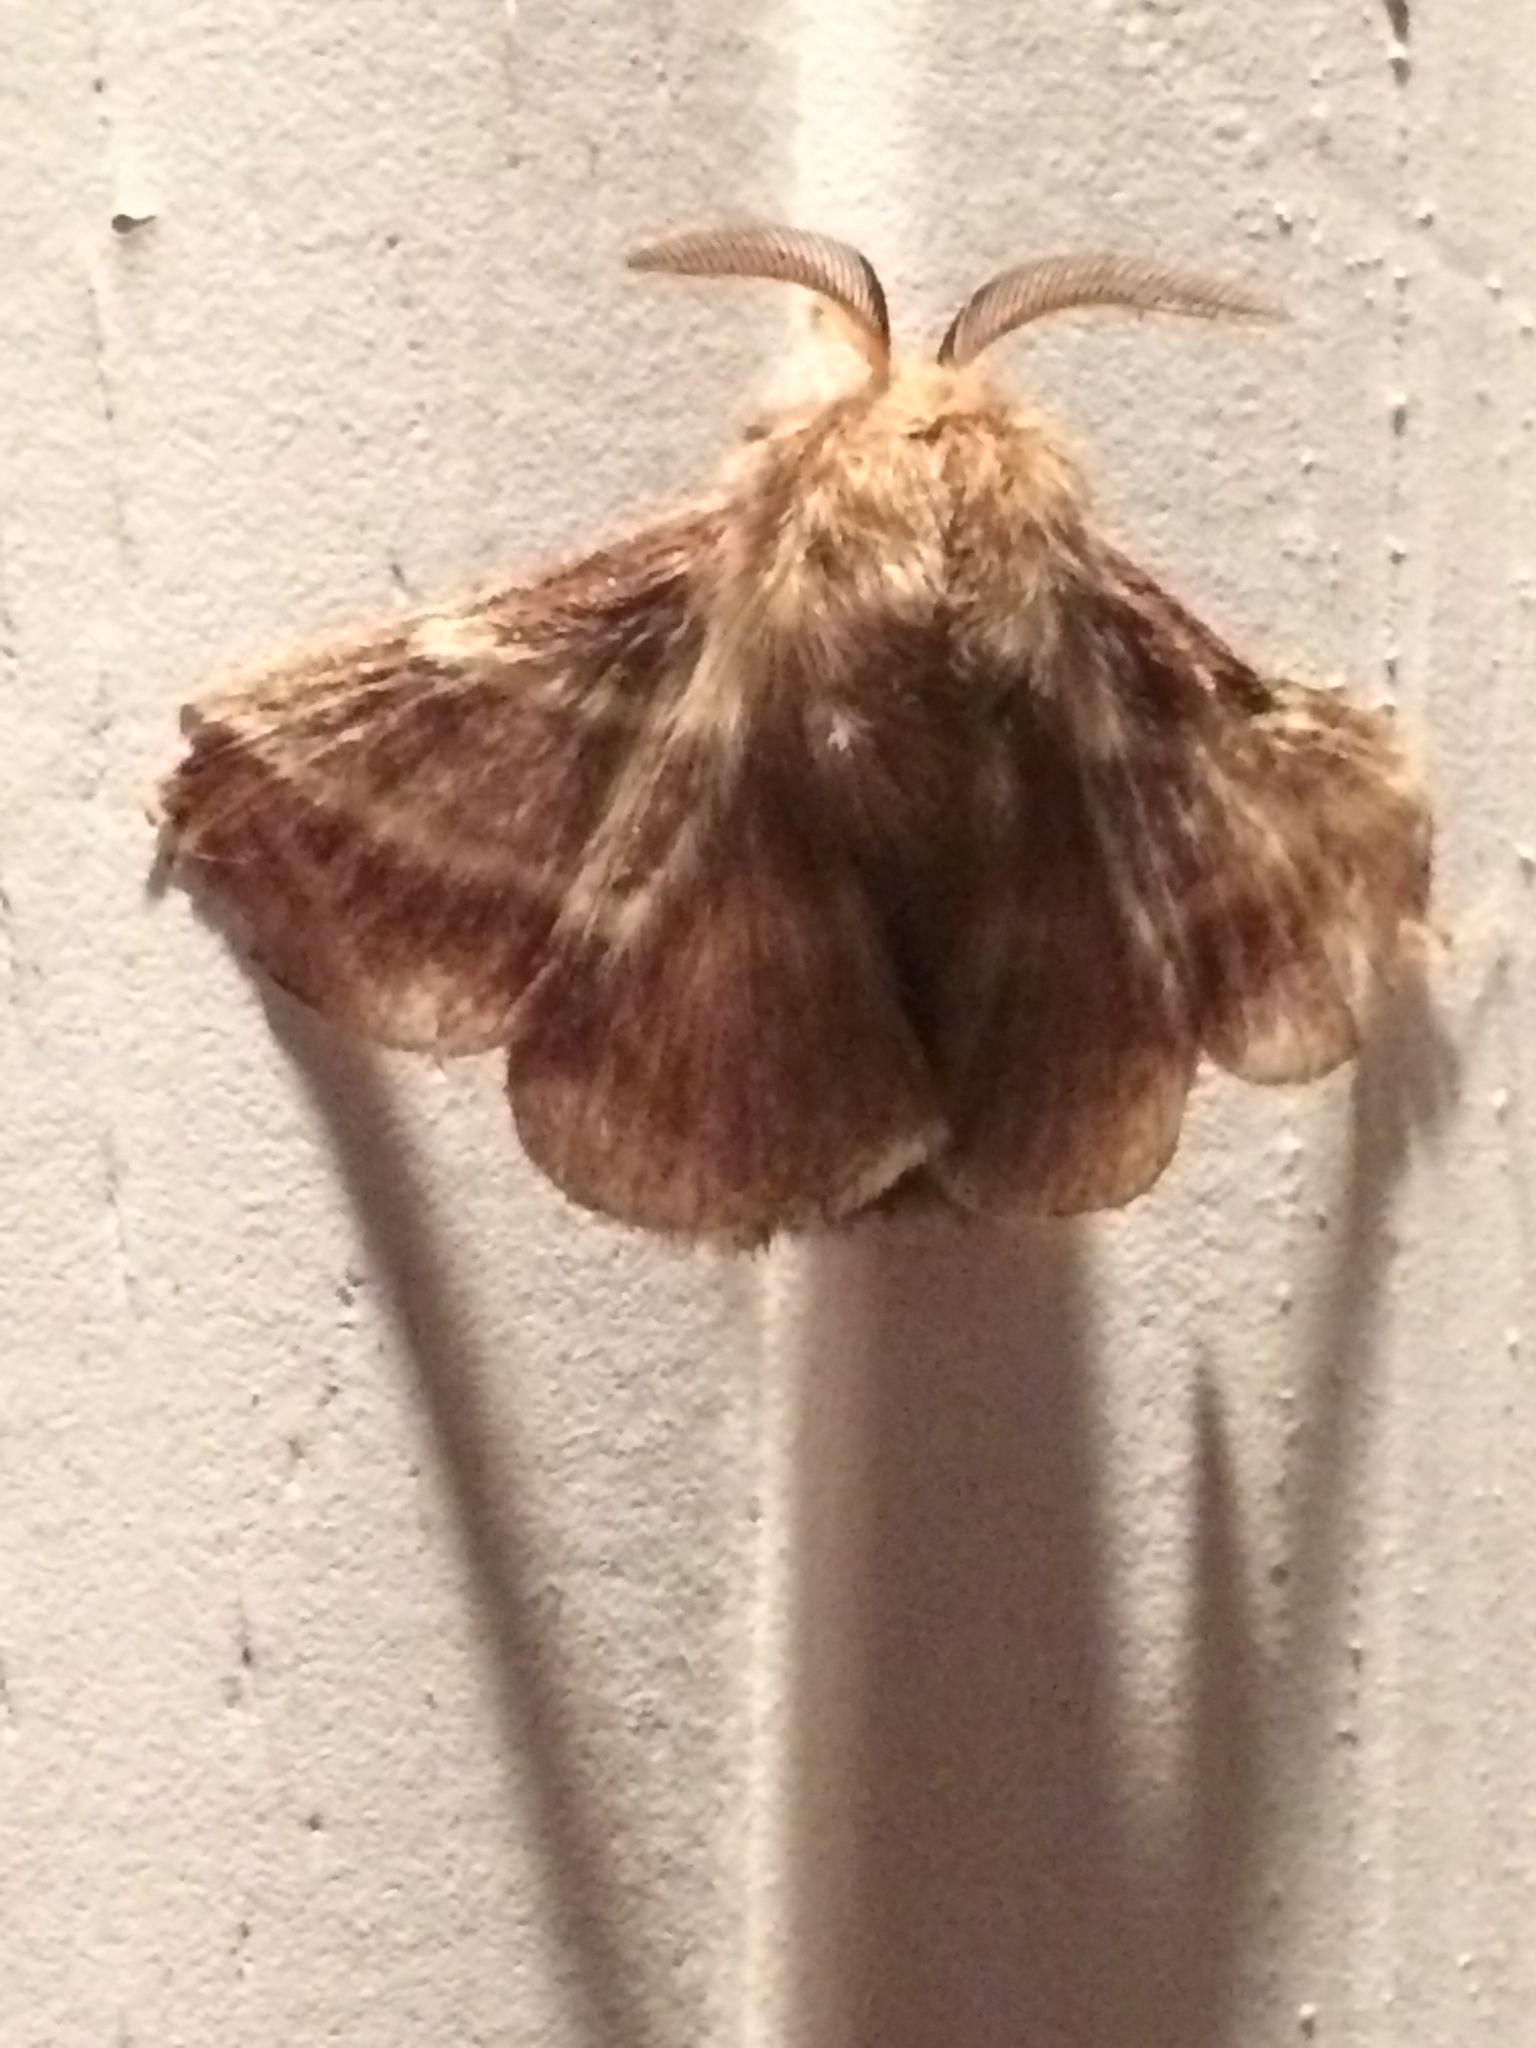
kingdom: Animalia
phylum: Arthropoda
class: Insecta
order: Lepidoptera
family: Lasiocampidae
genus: Malacosoma
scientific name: Malacosoma americana
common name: Eastern tent caterpillar moth
